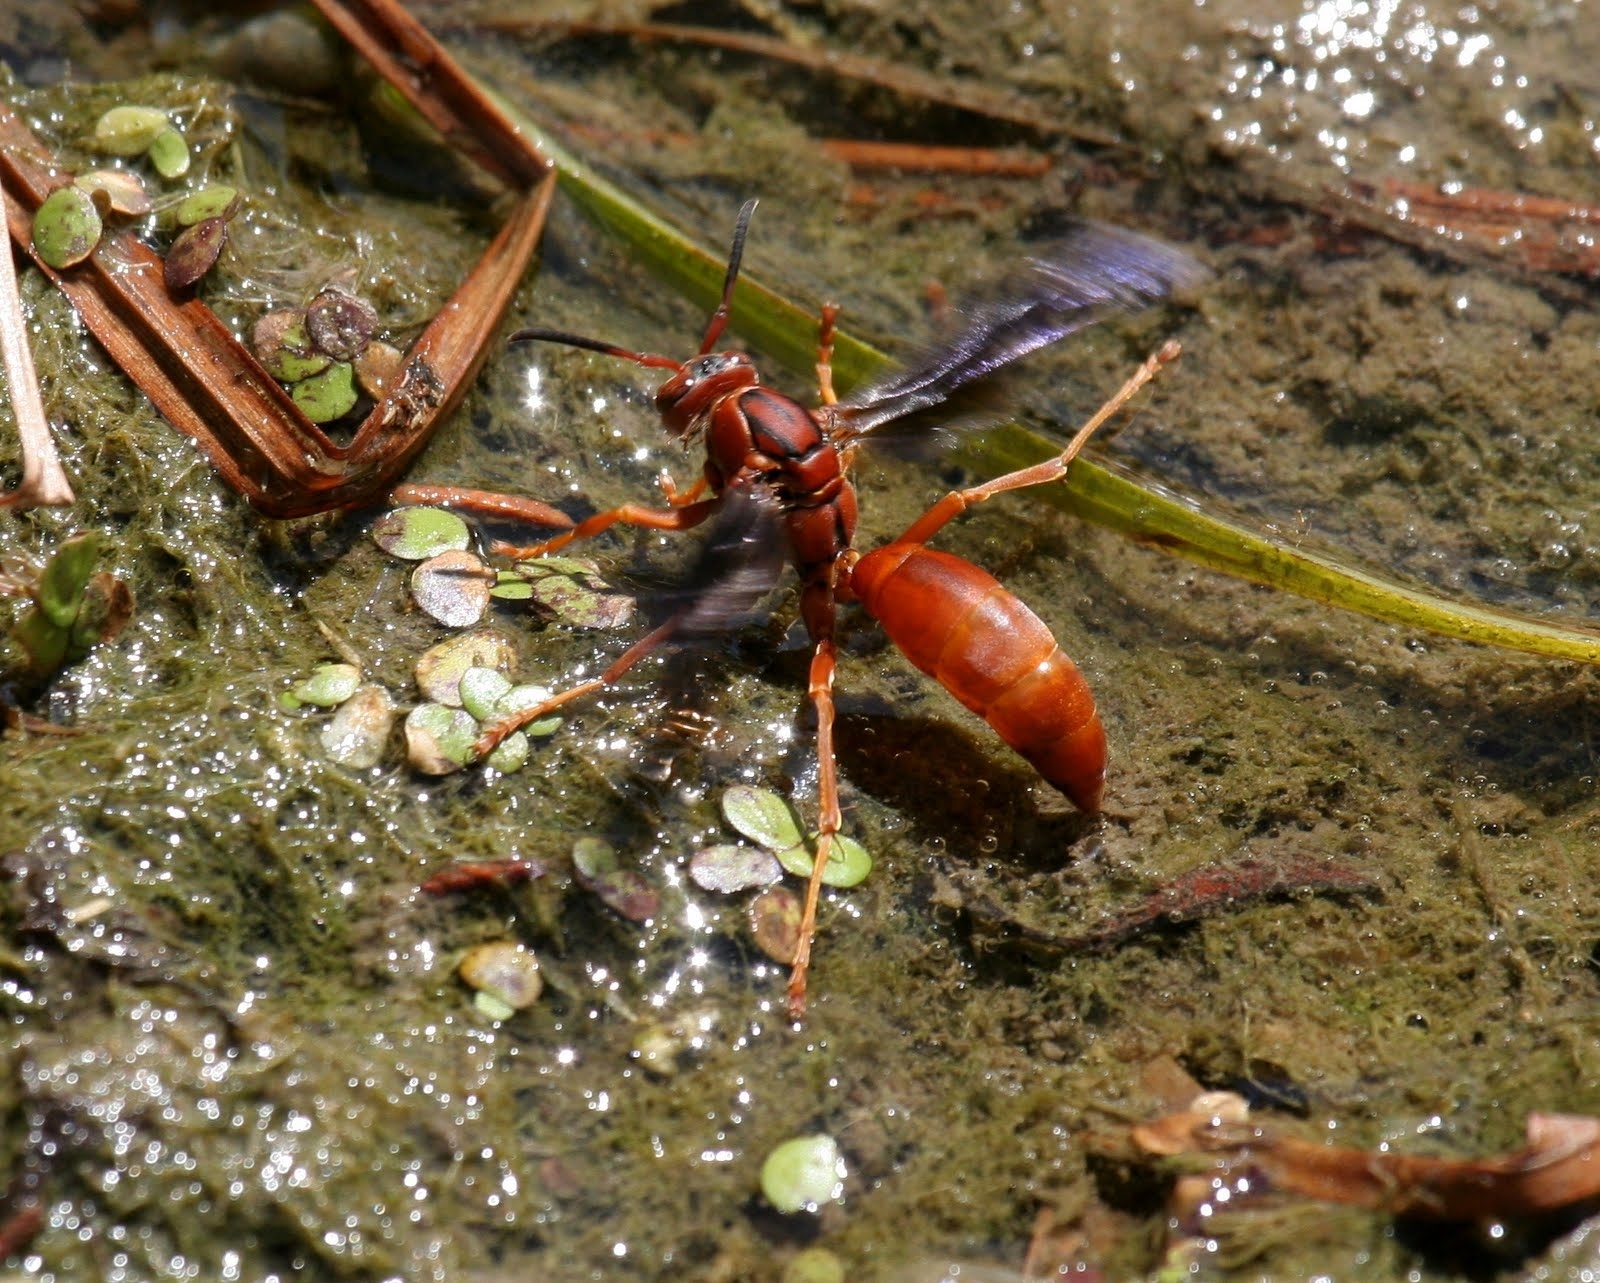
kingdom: Animalia
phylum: Arthropoda
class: Insecta
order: Hymenoptera
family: Eumenidae
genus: Polistes
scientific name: Polistes carolina
